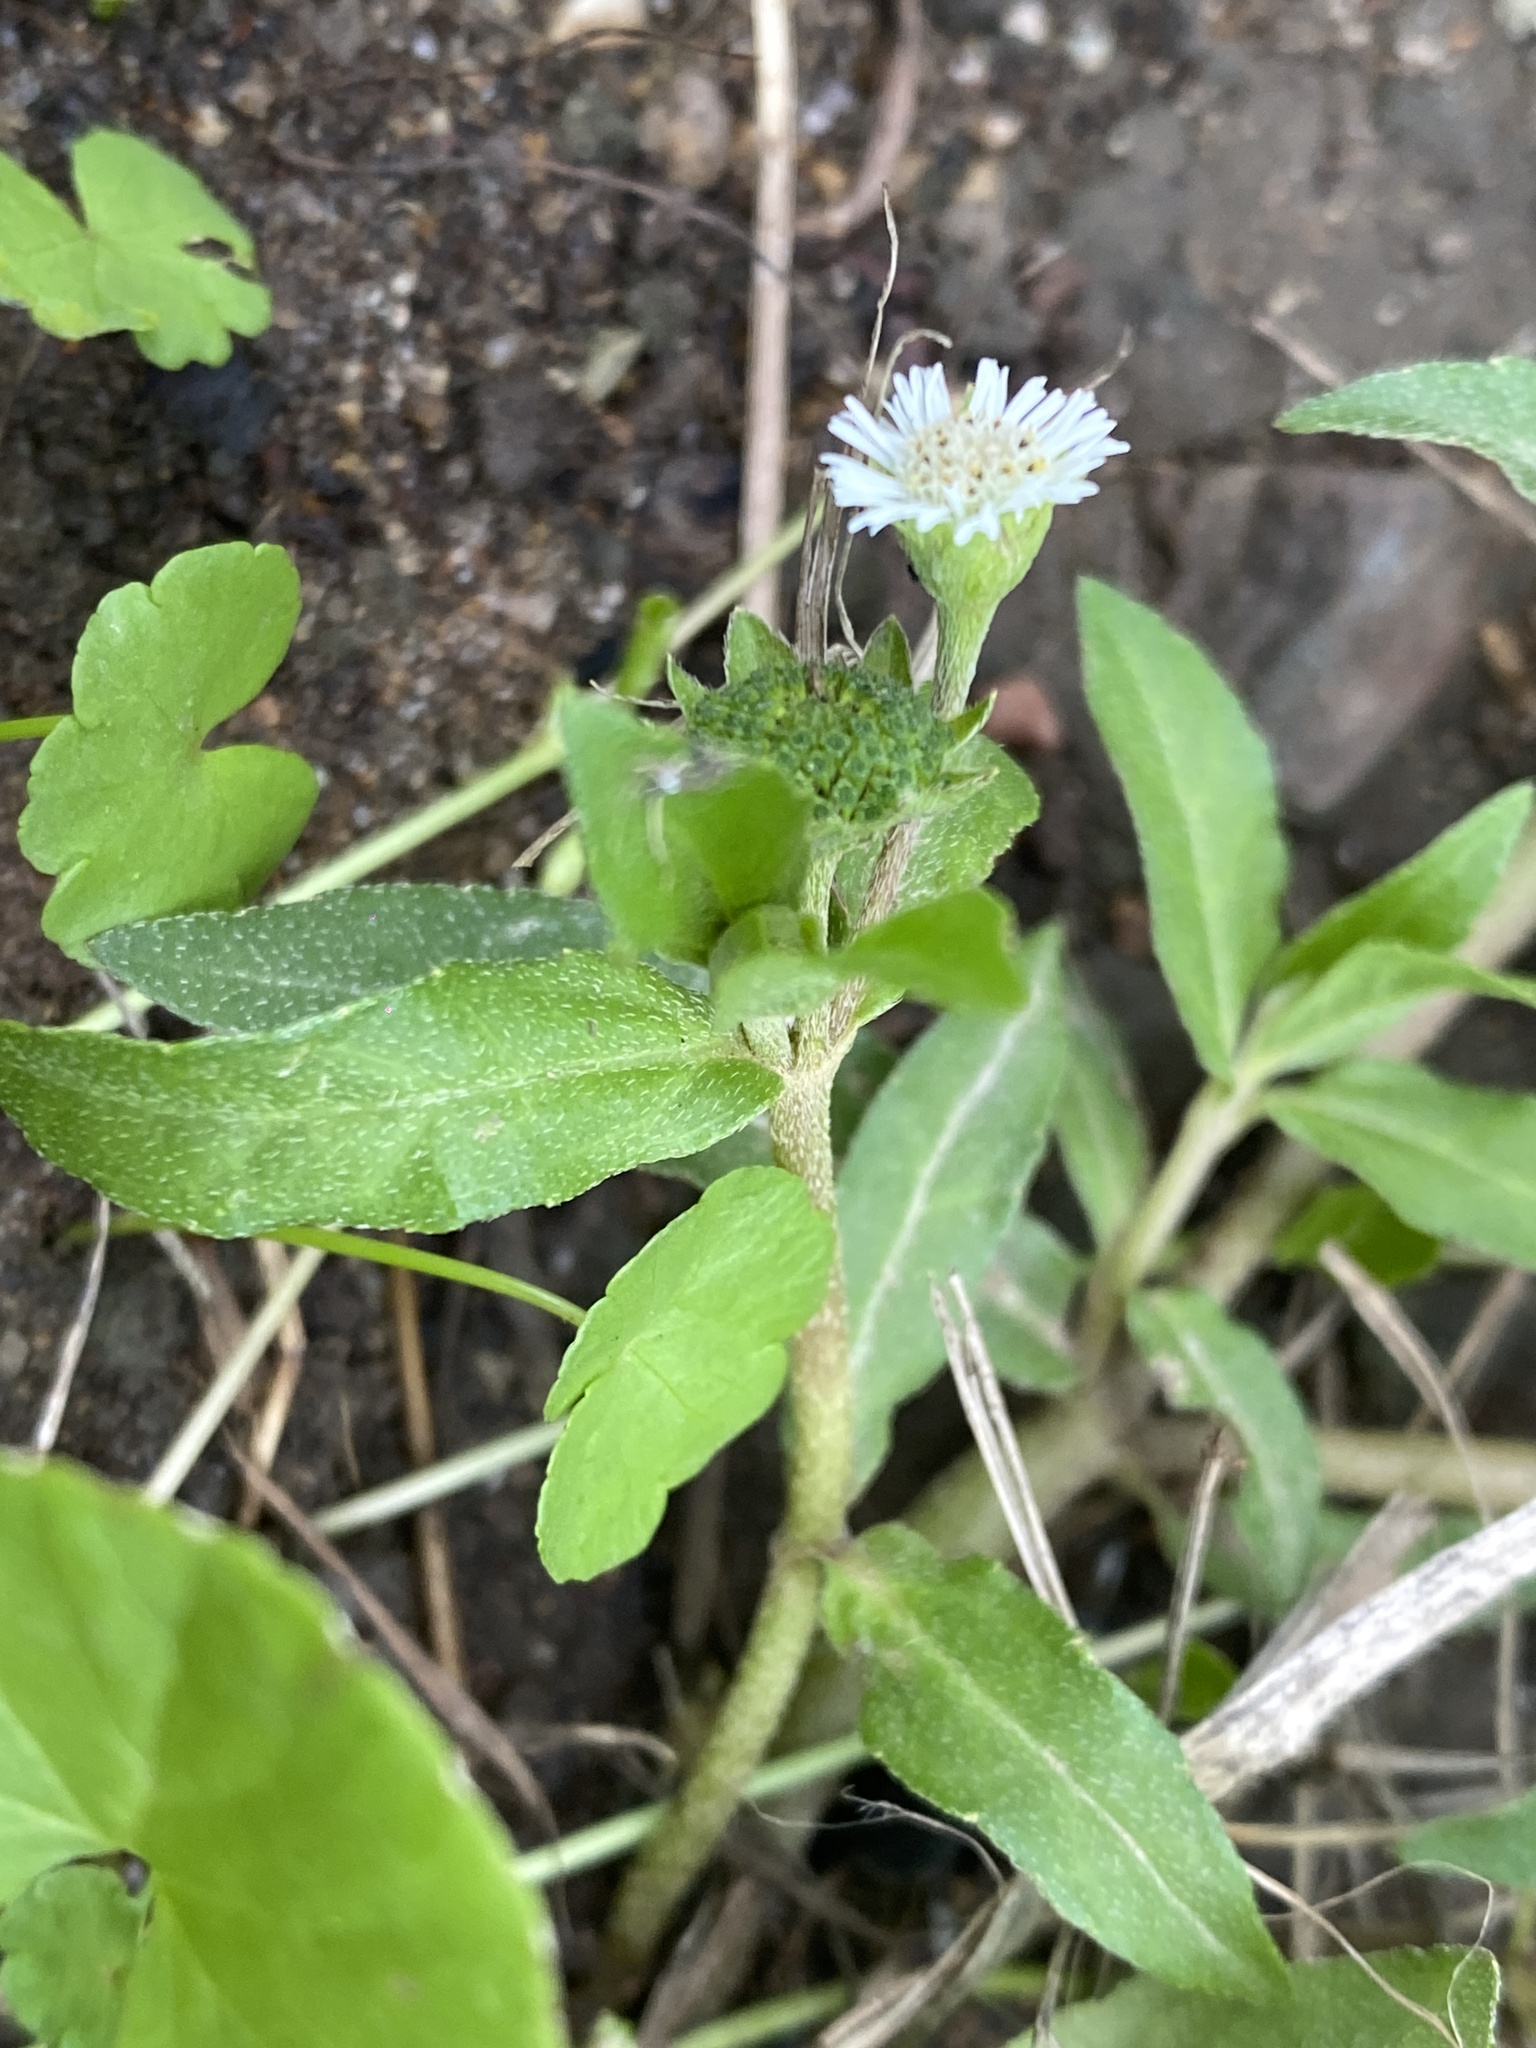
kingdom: Plantae
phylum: Tracheophyta
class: Magnoliopsida
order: Asterales
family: Asteraceae
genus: Eclipta
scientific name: Eclipta prostrata
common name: False daisy
